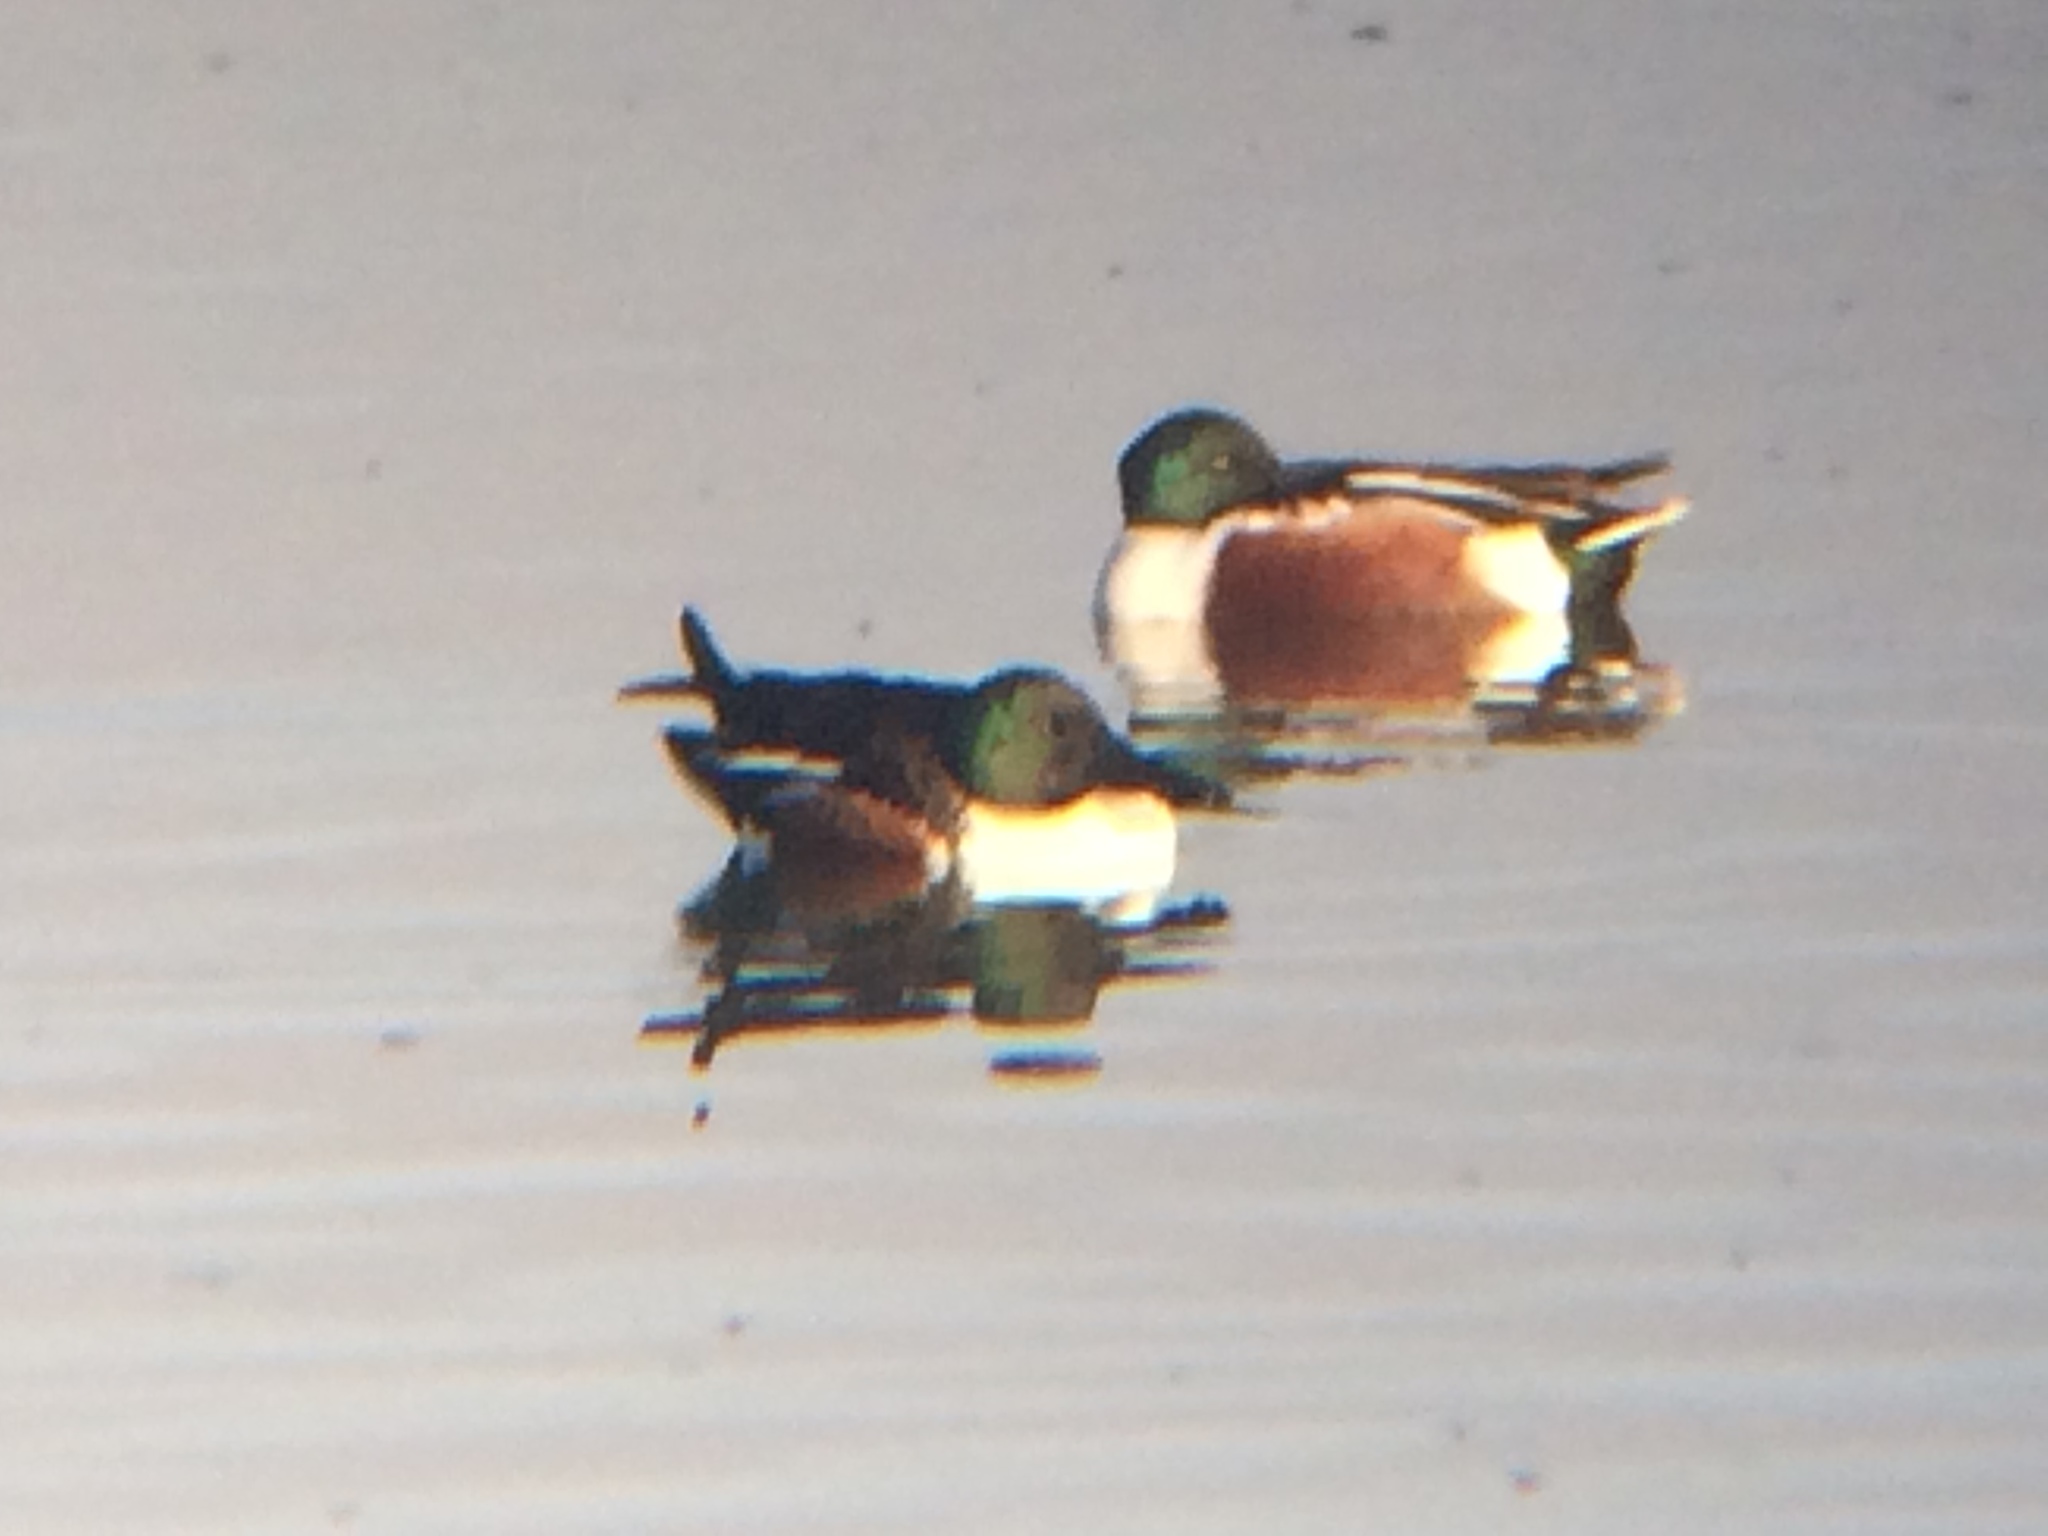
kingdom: Animalia
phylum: Chordata
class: Aves
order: Anseriformes
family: Anatidae
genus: Spatula
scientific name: Spatula clypeata
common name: Northern shoveler
